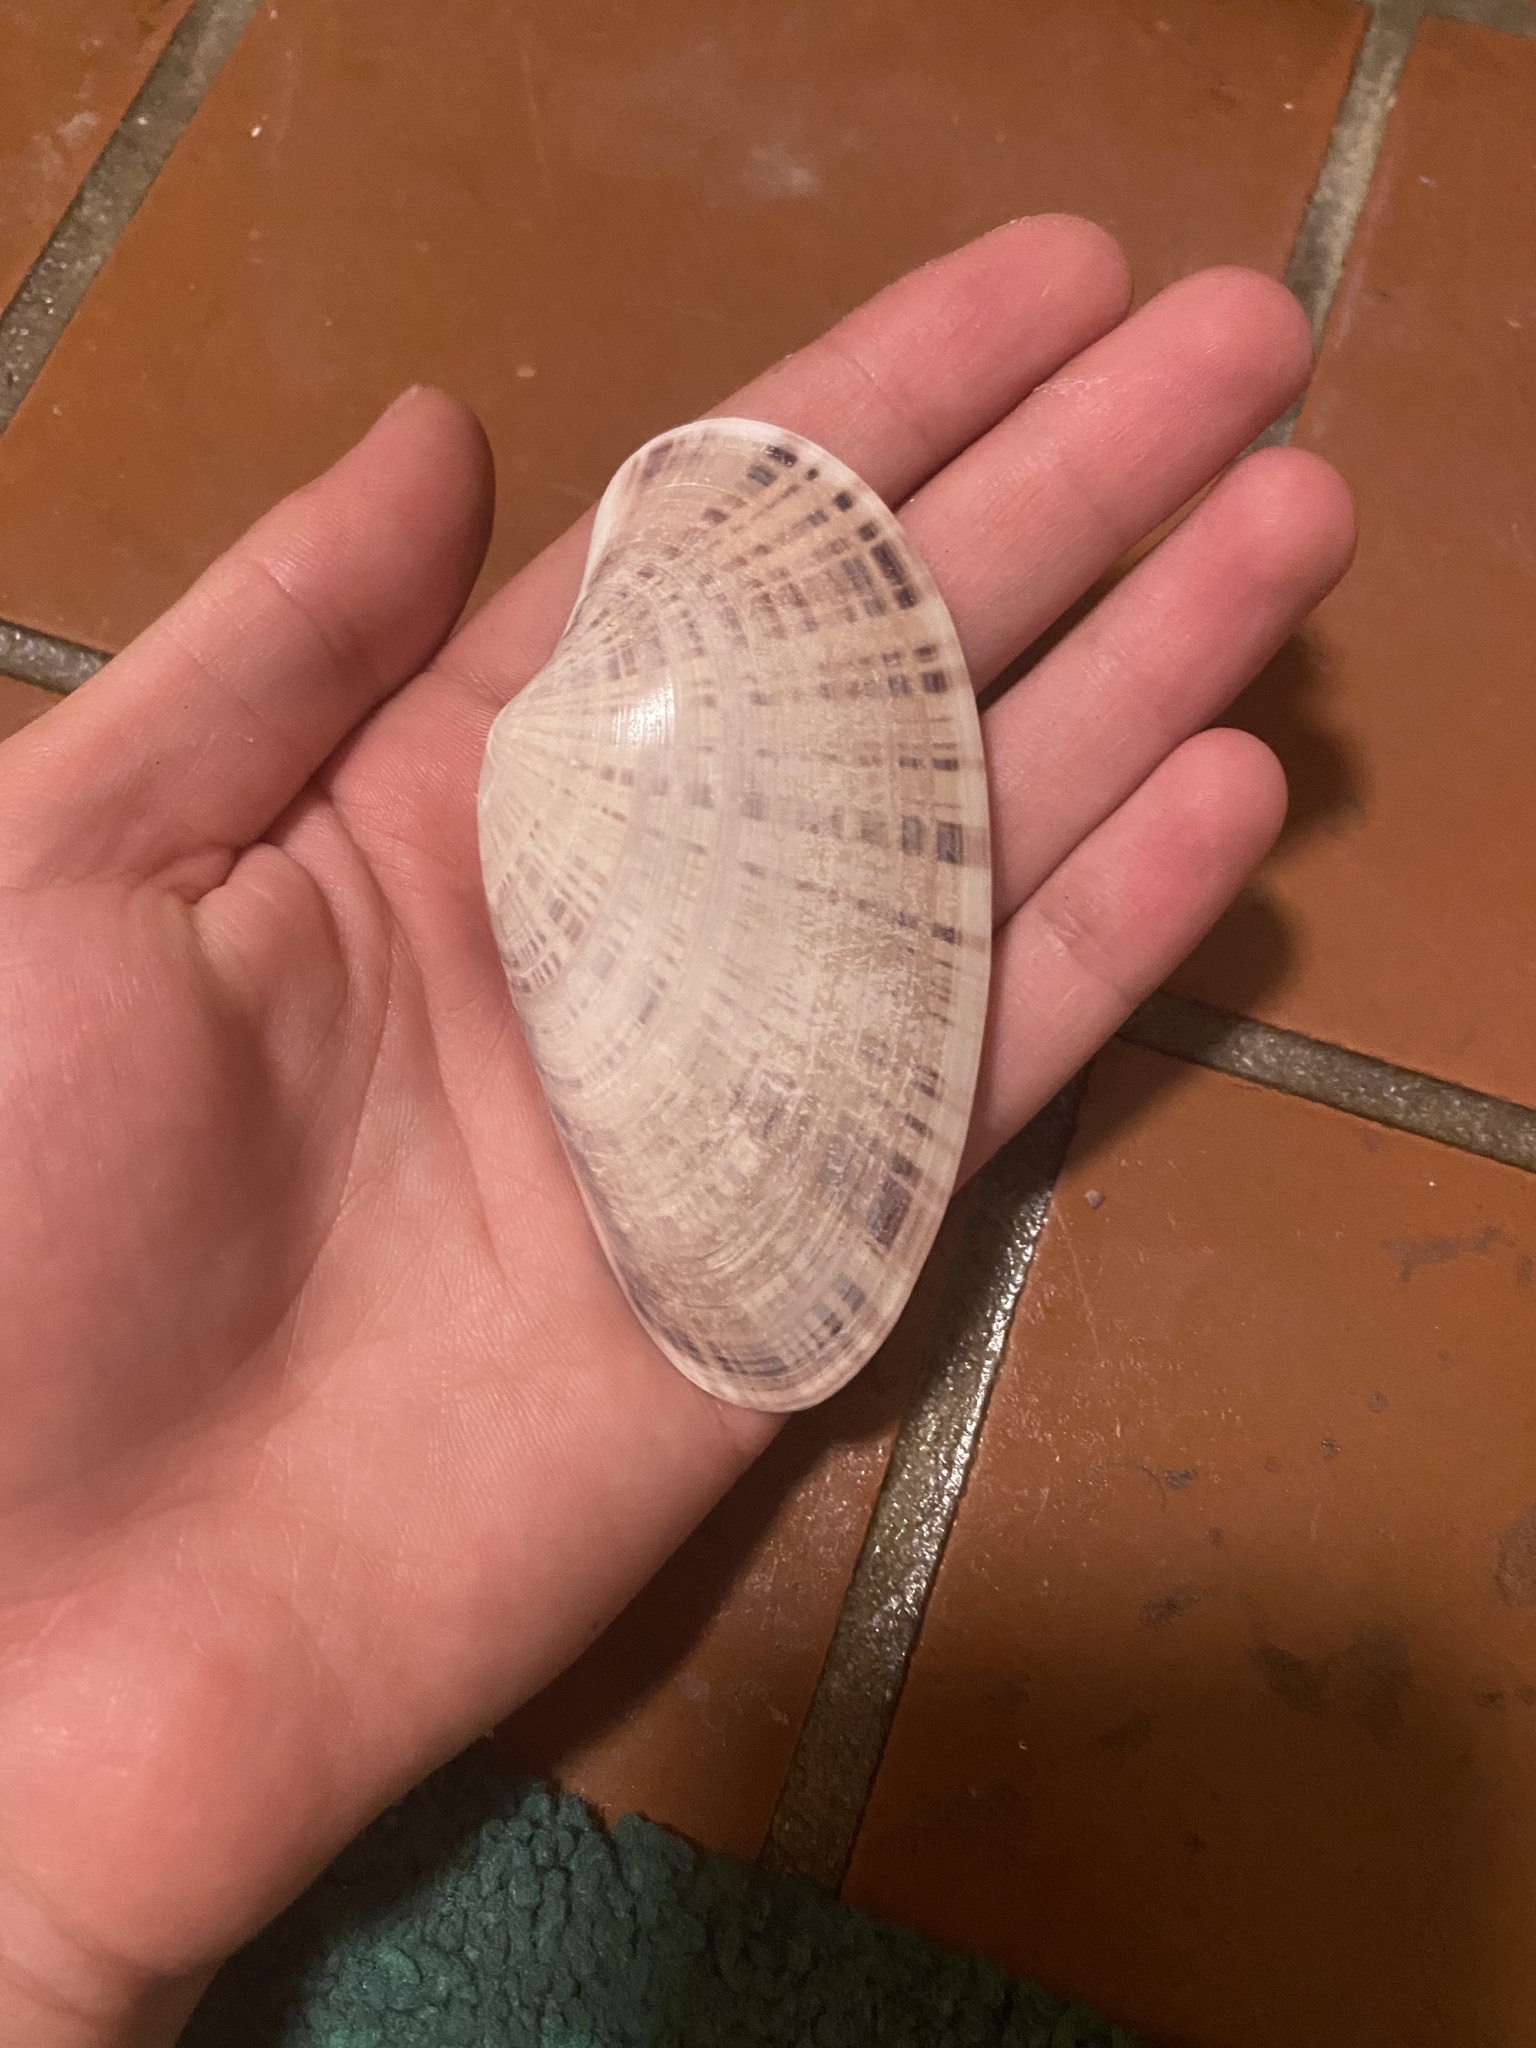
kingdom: Animalia
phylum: Mollusca
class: Bivalvia
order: Venerida
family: Veneridae
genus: Macrocallista
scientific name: Macrocallista nimbosa
